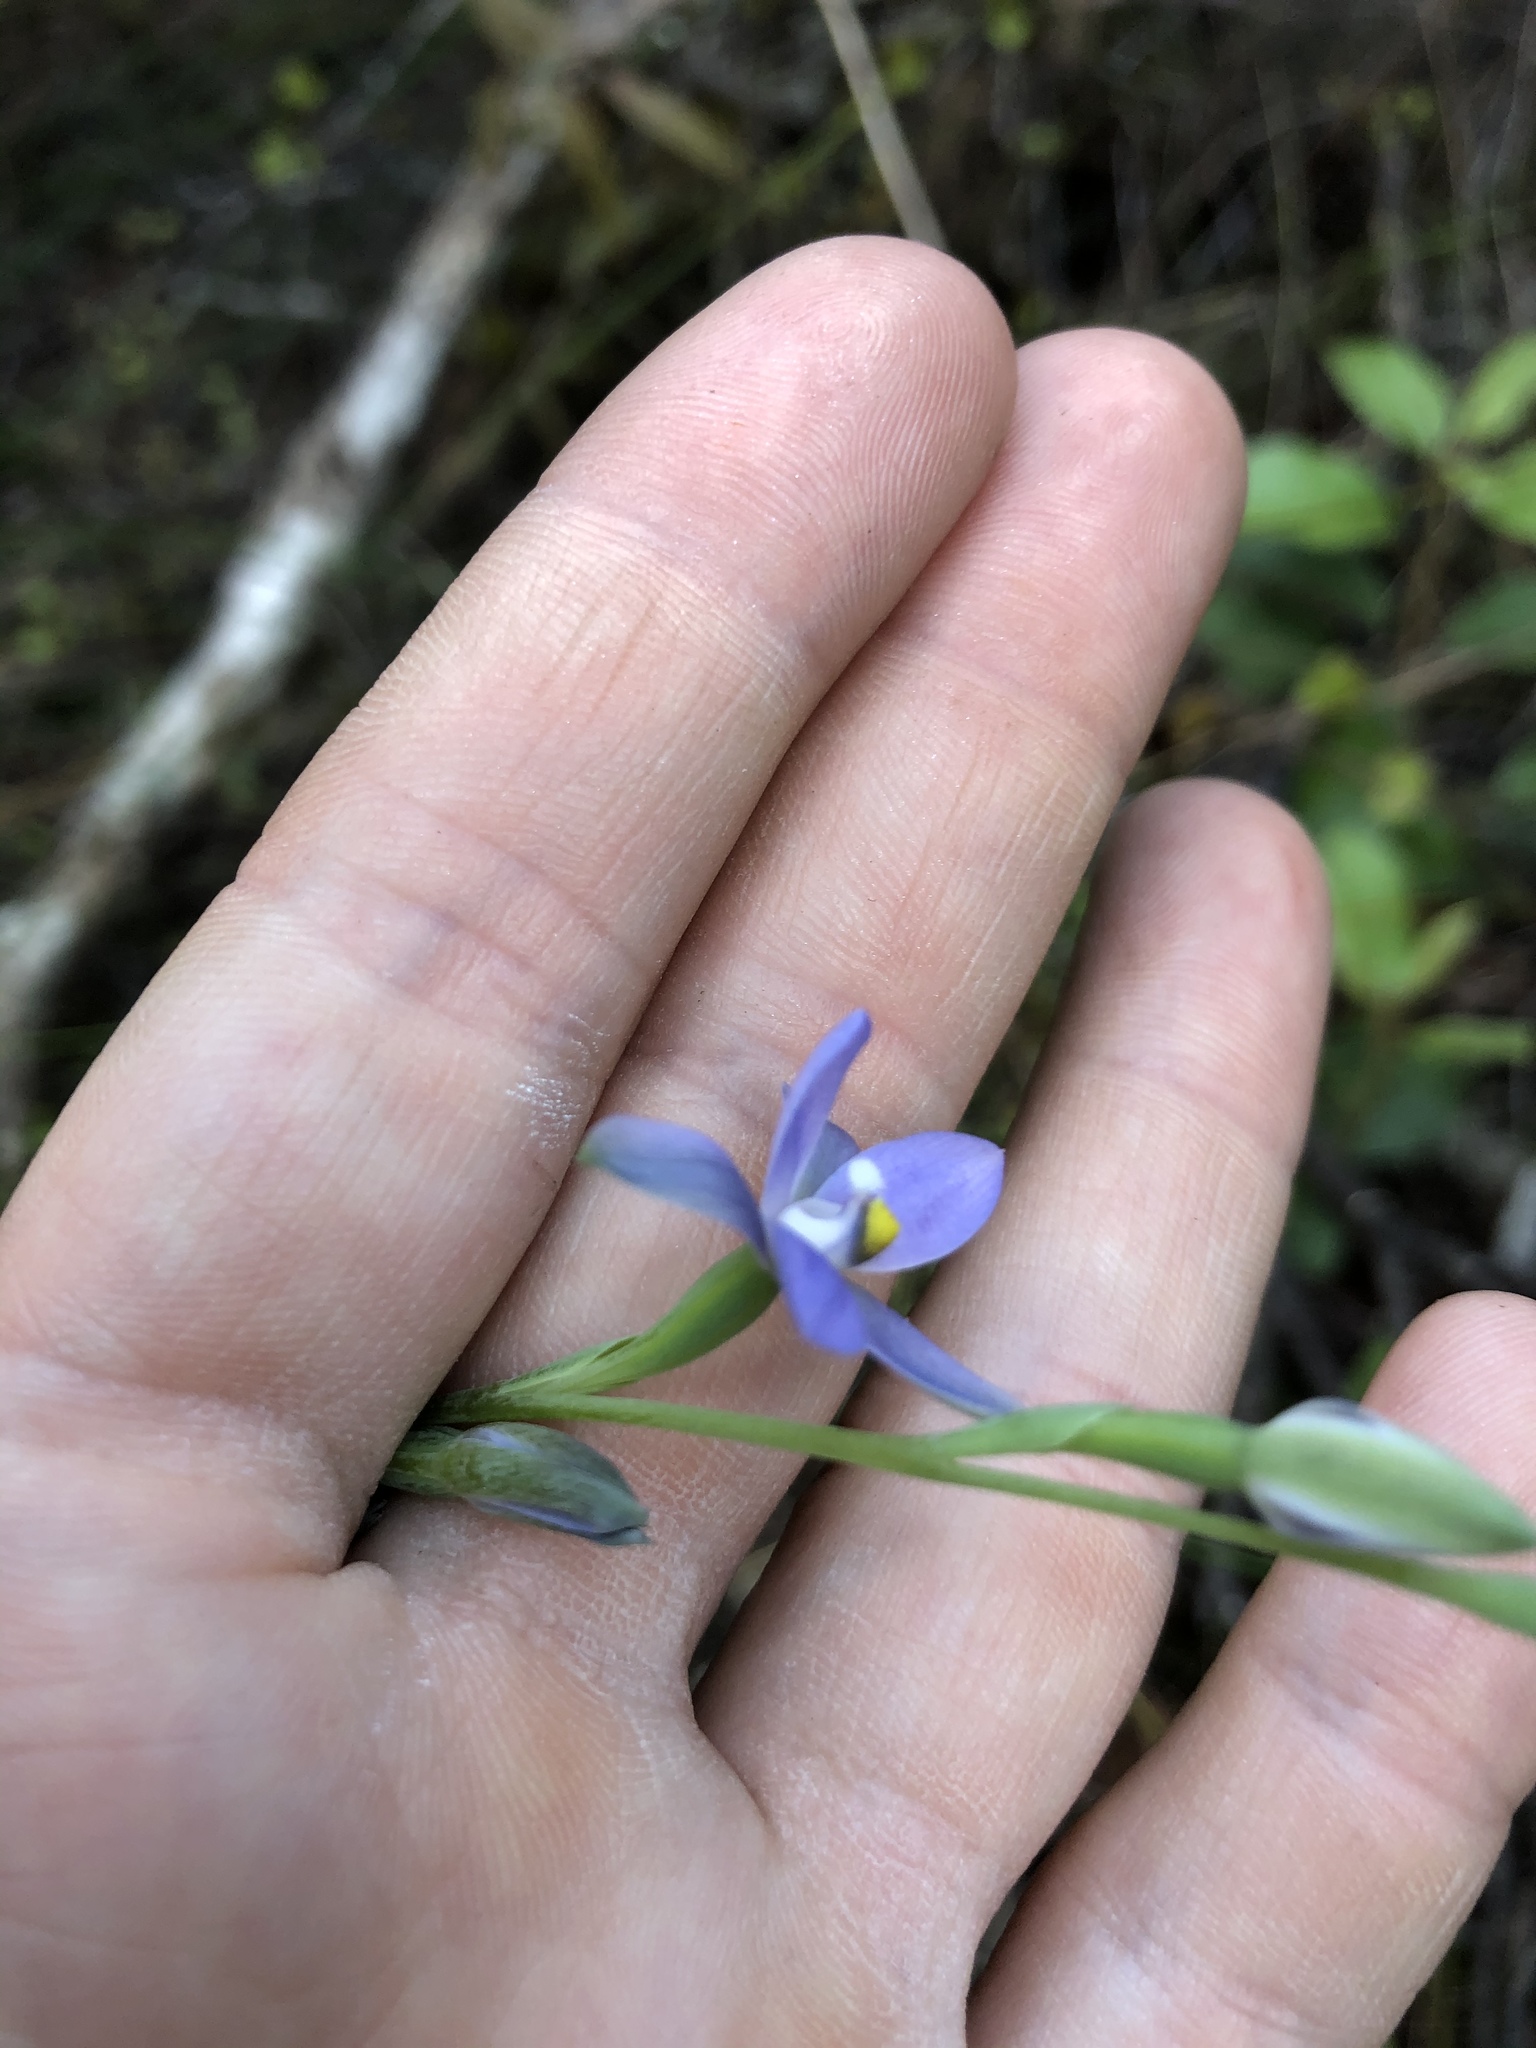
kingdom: Plantae
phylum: Tracheophyta
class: Liliopsida
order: Asparagales
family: Orchidaceae
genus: Thelymitra
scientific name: Thelymitra tholiformis
